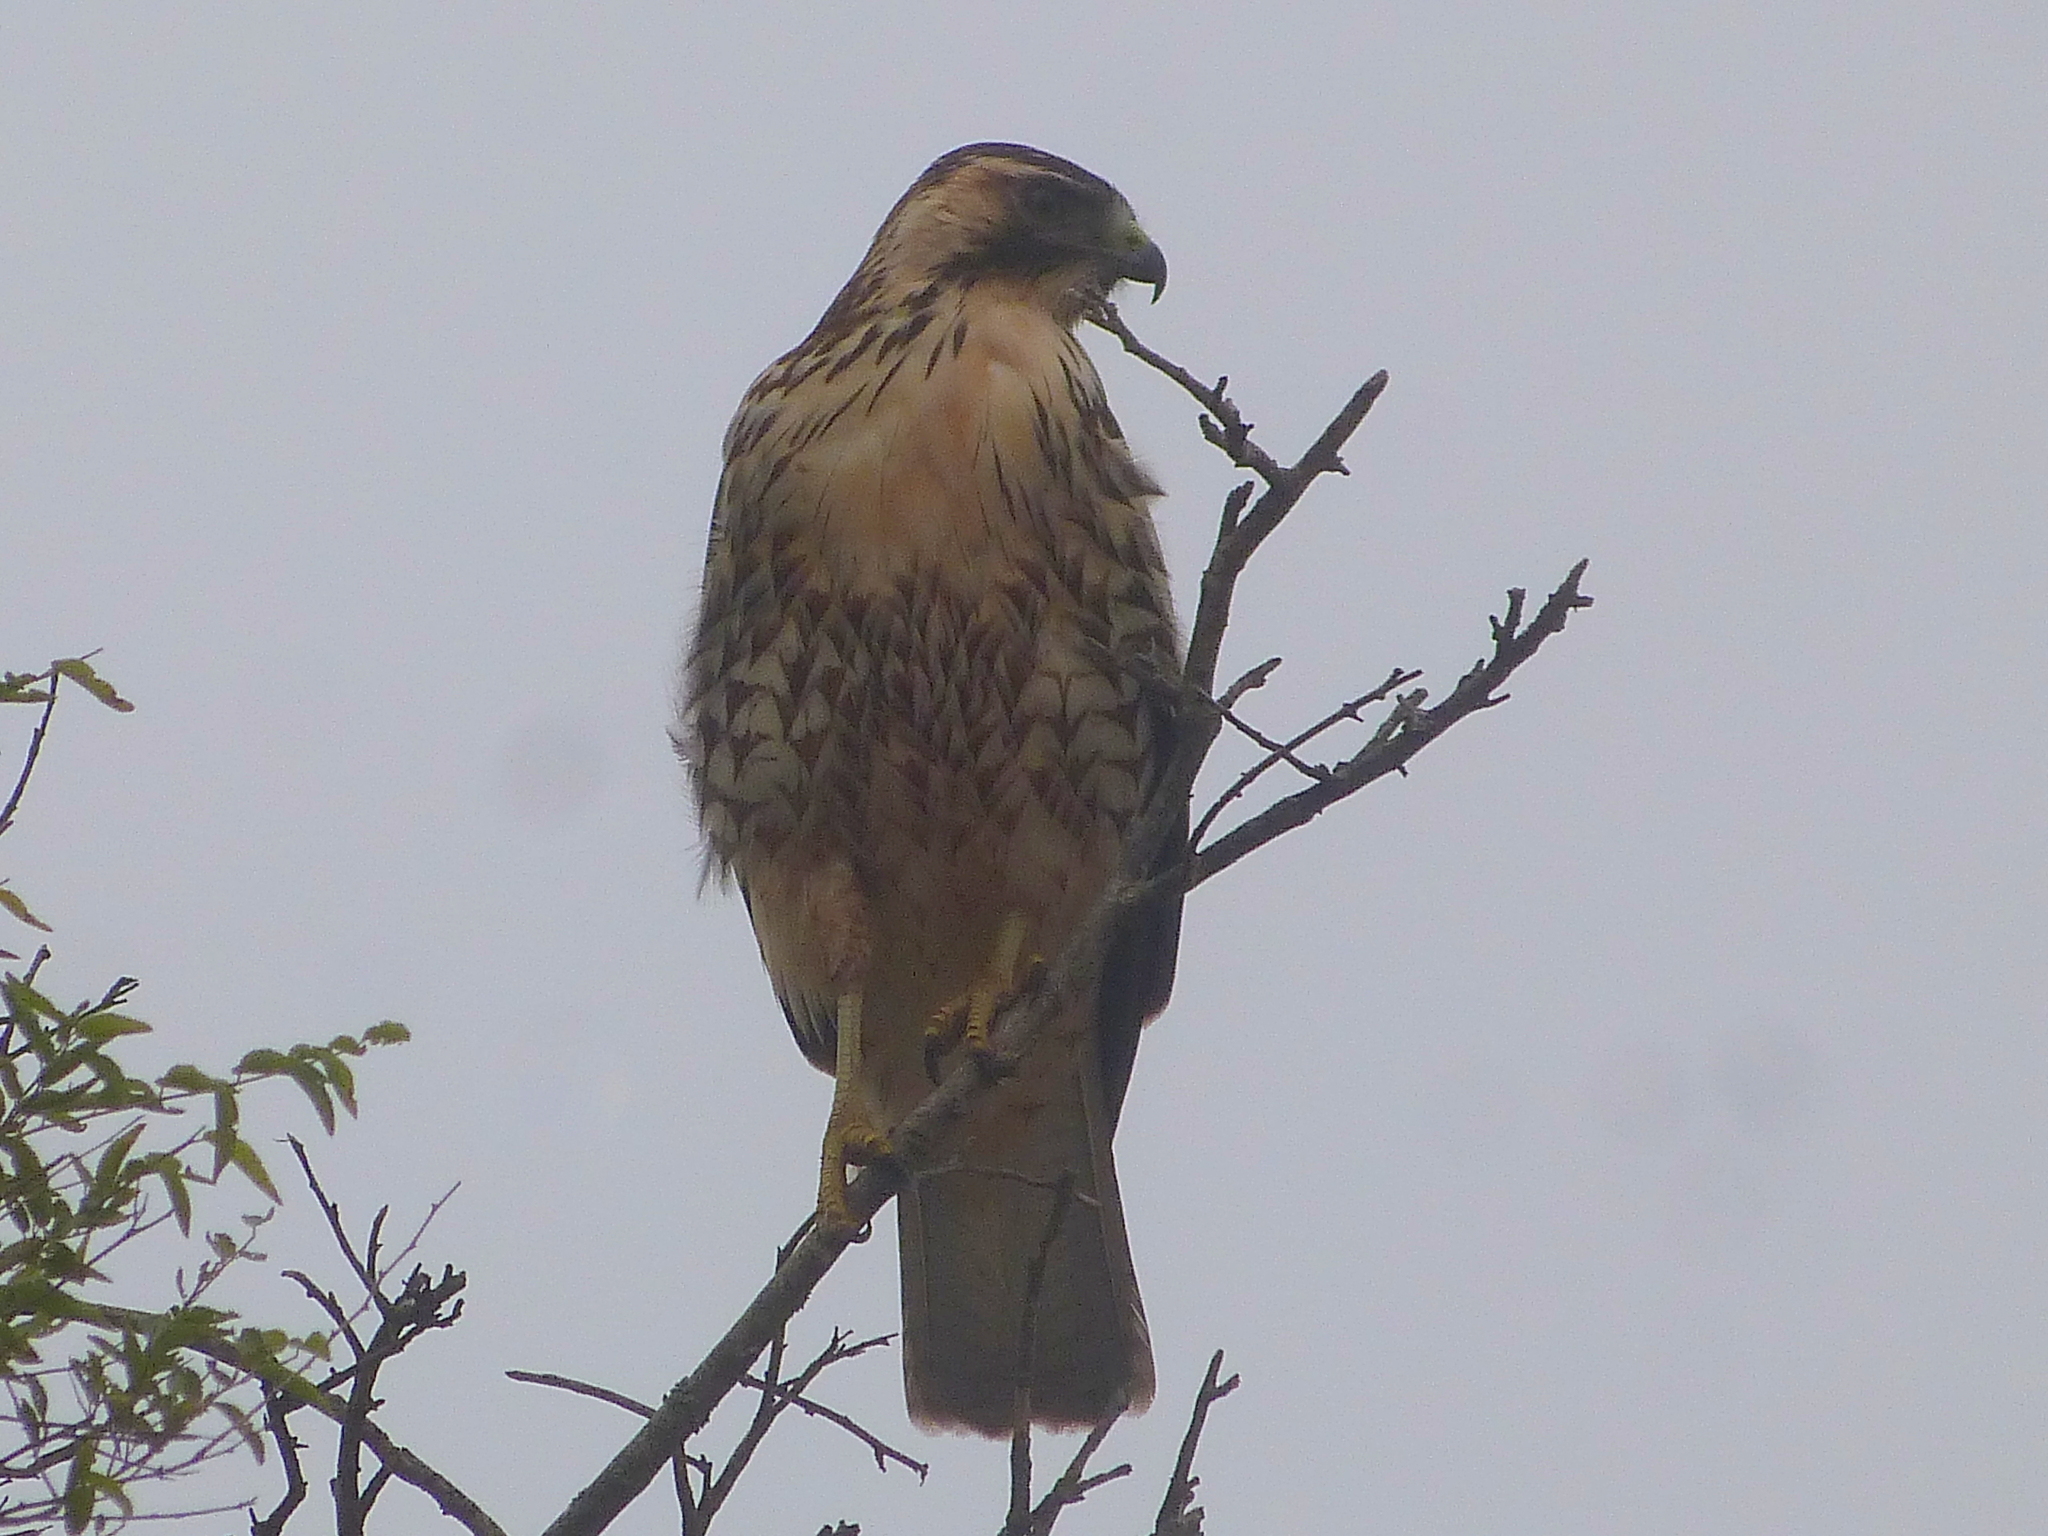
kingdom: Animalia
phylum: Chordata
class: Aves
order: Accipitriformes
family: Accipitridae
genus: Buteo
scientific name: Buteo polyosoma
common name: Variable hawk
